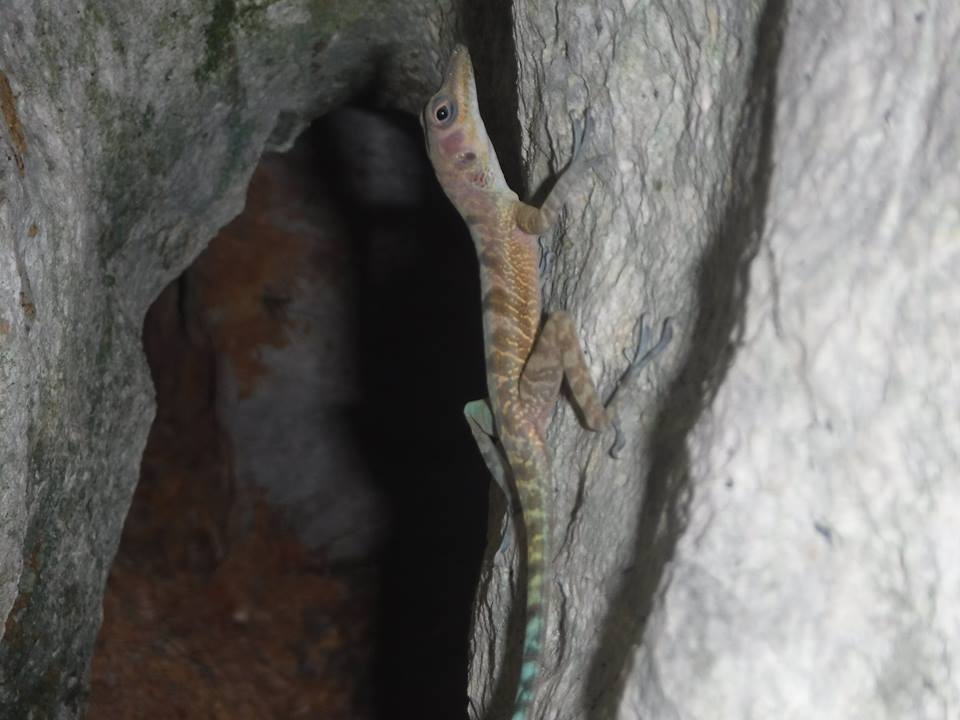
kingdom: Animalia
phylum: Chordata
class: Squamata
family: Dactyloidae
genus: Anolis
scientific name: Anolis bartschi
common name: West cuban anole
